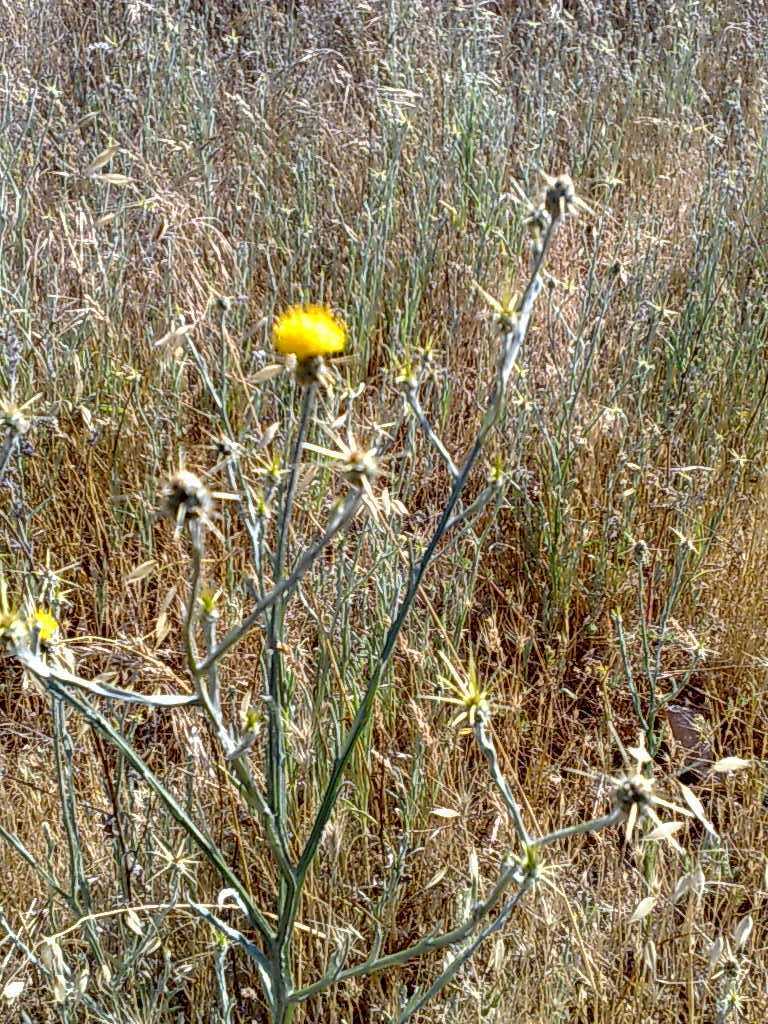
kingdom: Plantae
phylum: Tracheophyta
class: Magnoliopsida
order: Asterales
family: Asteraceae
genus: Centaurea
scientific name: Centaurea solstitialis
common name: Yellow star-thistle
